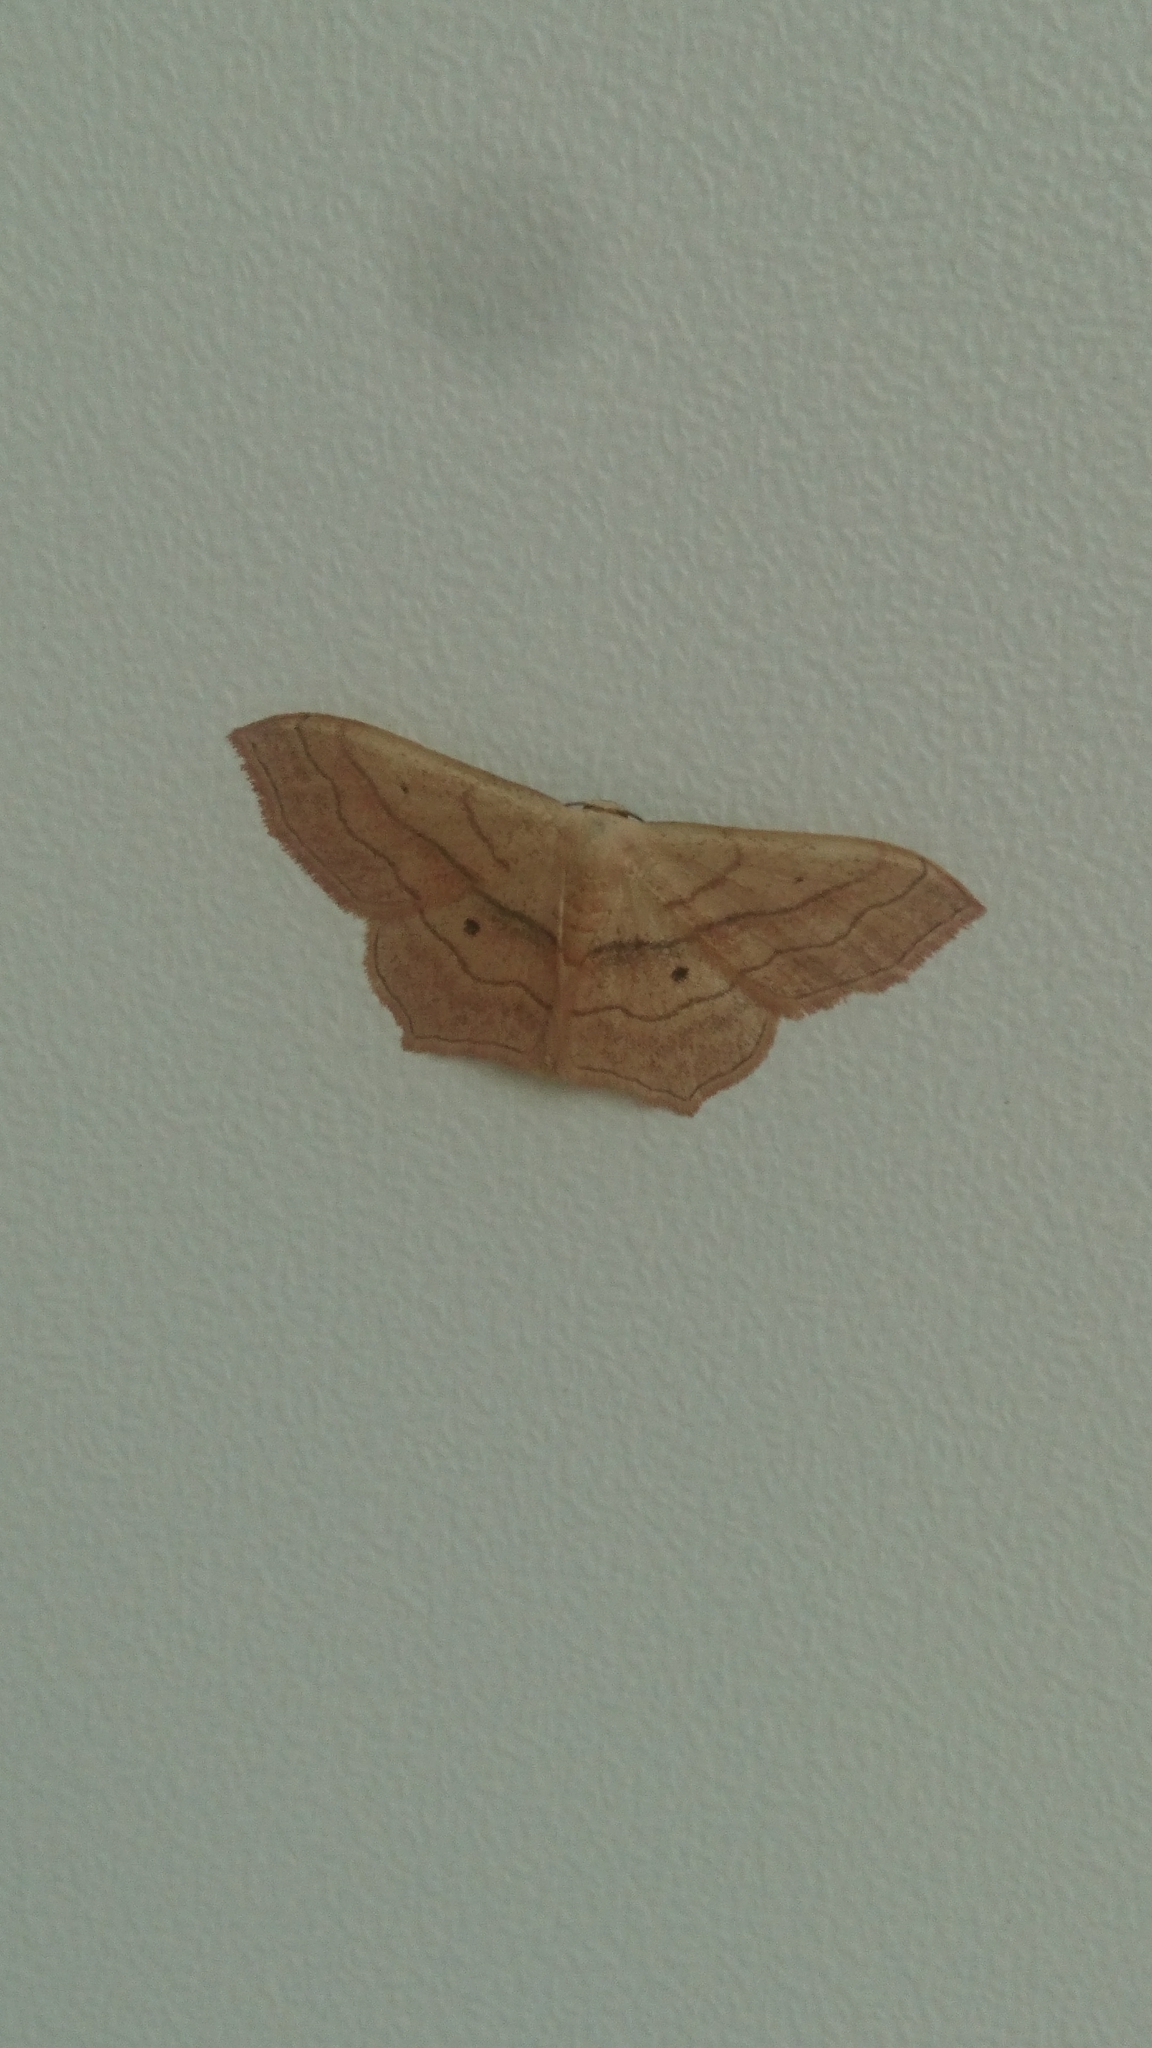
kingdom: Animalia
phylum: Arthropoda
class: Insecta
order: Lepidoptera
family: Geometridae
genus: Scopula
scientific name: Scopula imitaria
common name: Small blood-vein
